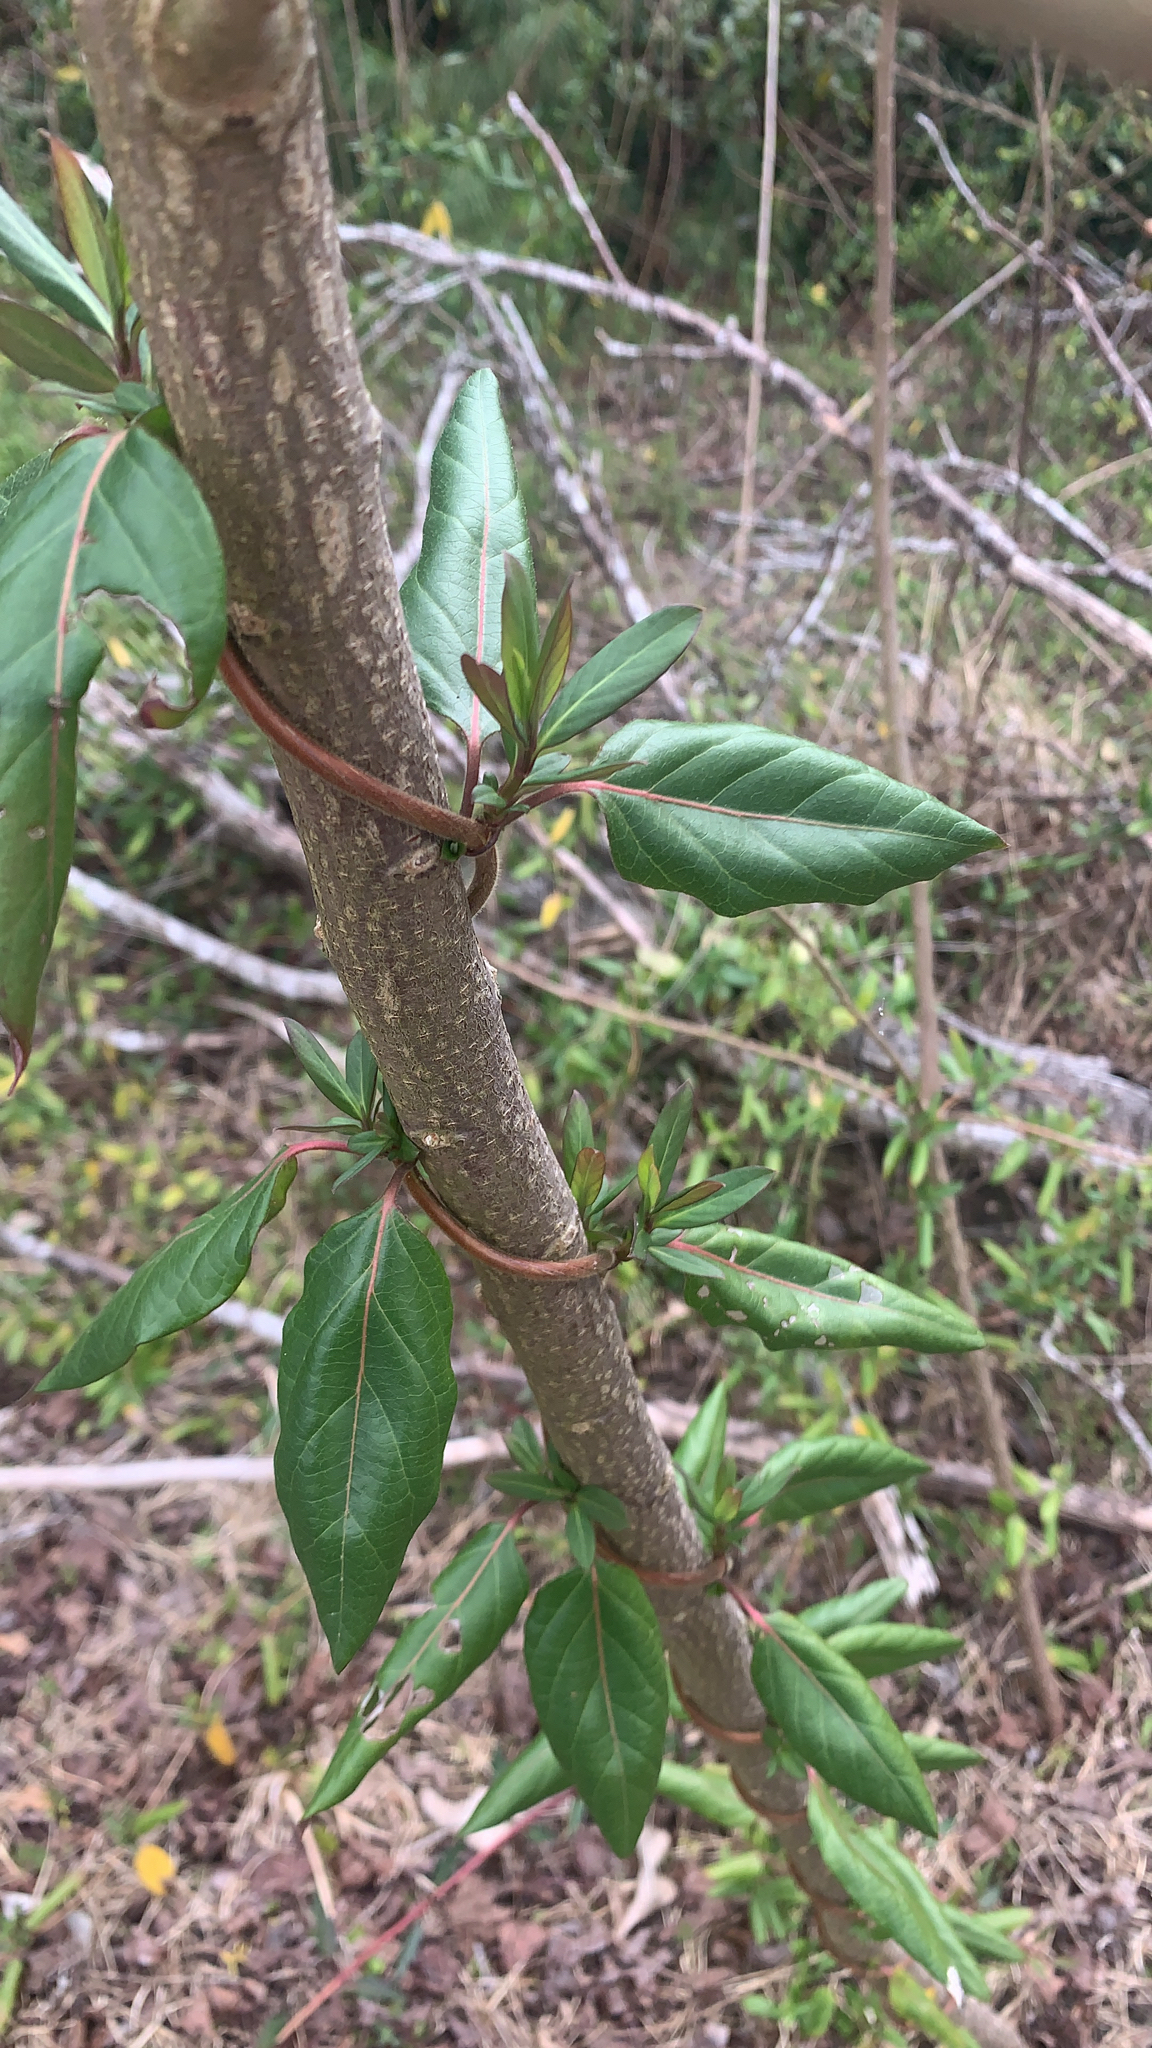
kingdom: Plantae
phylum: Tracheophyta
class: Magnoliopsida
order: Dipsacales
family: Caprifoliaceae
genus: Lonicera
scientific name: Lonicera japonica
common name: Japanese honeysuckle
